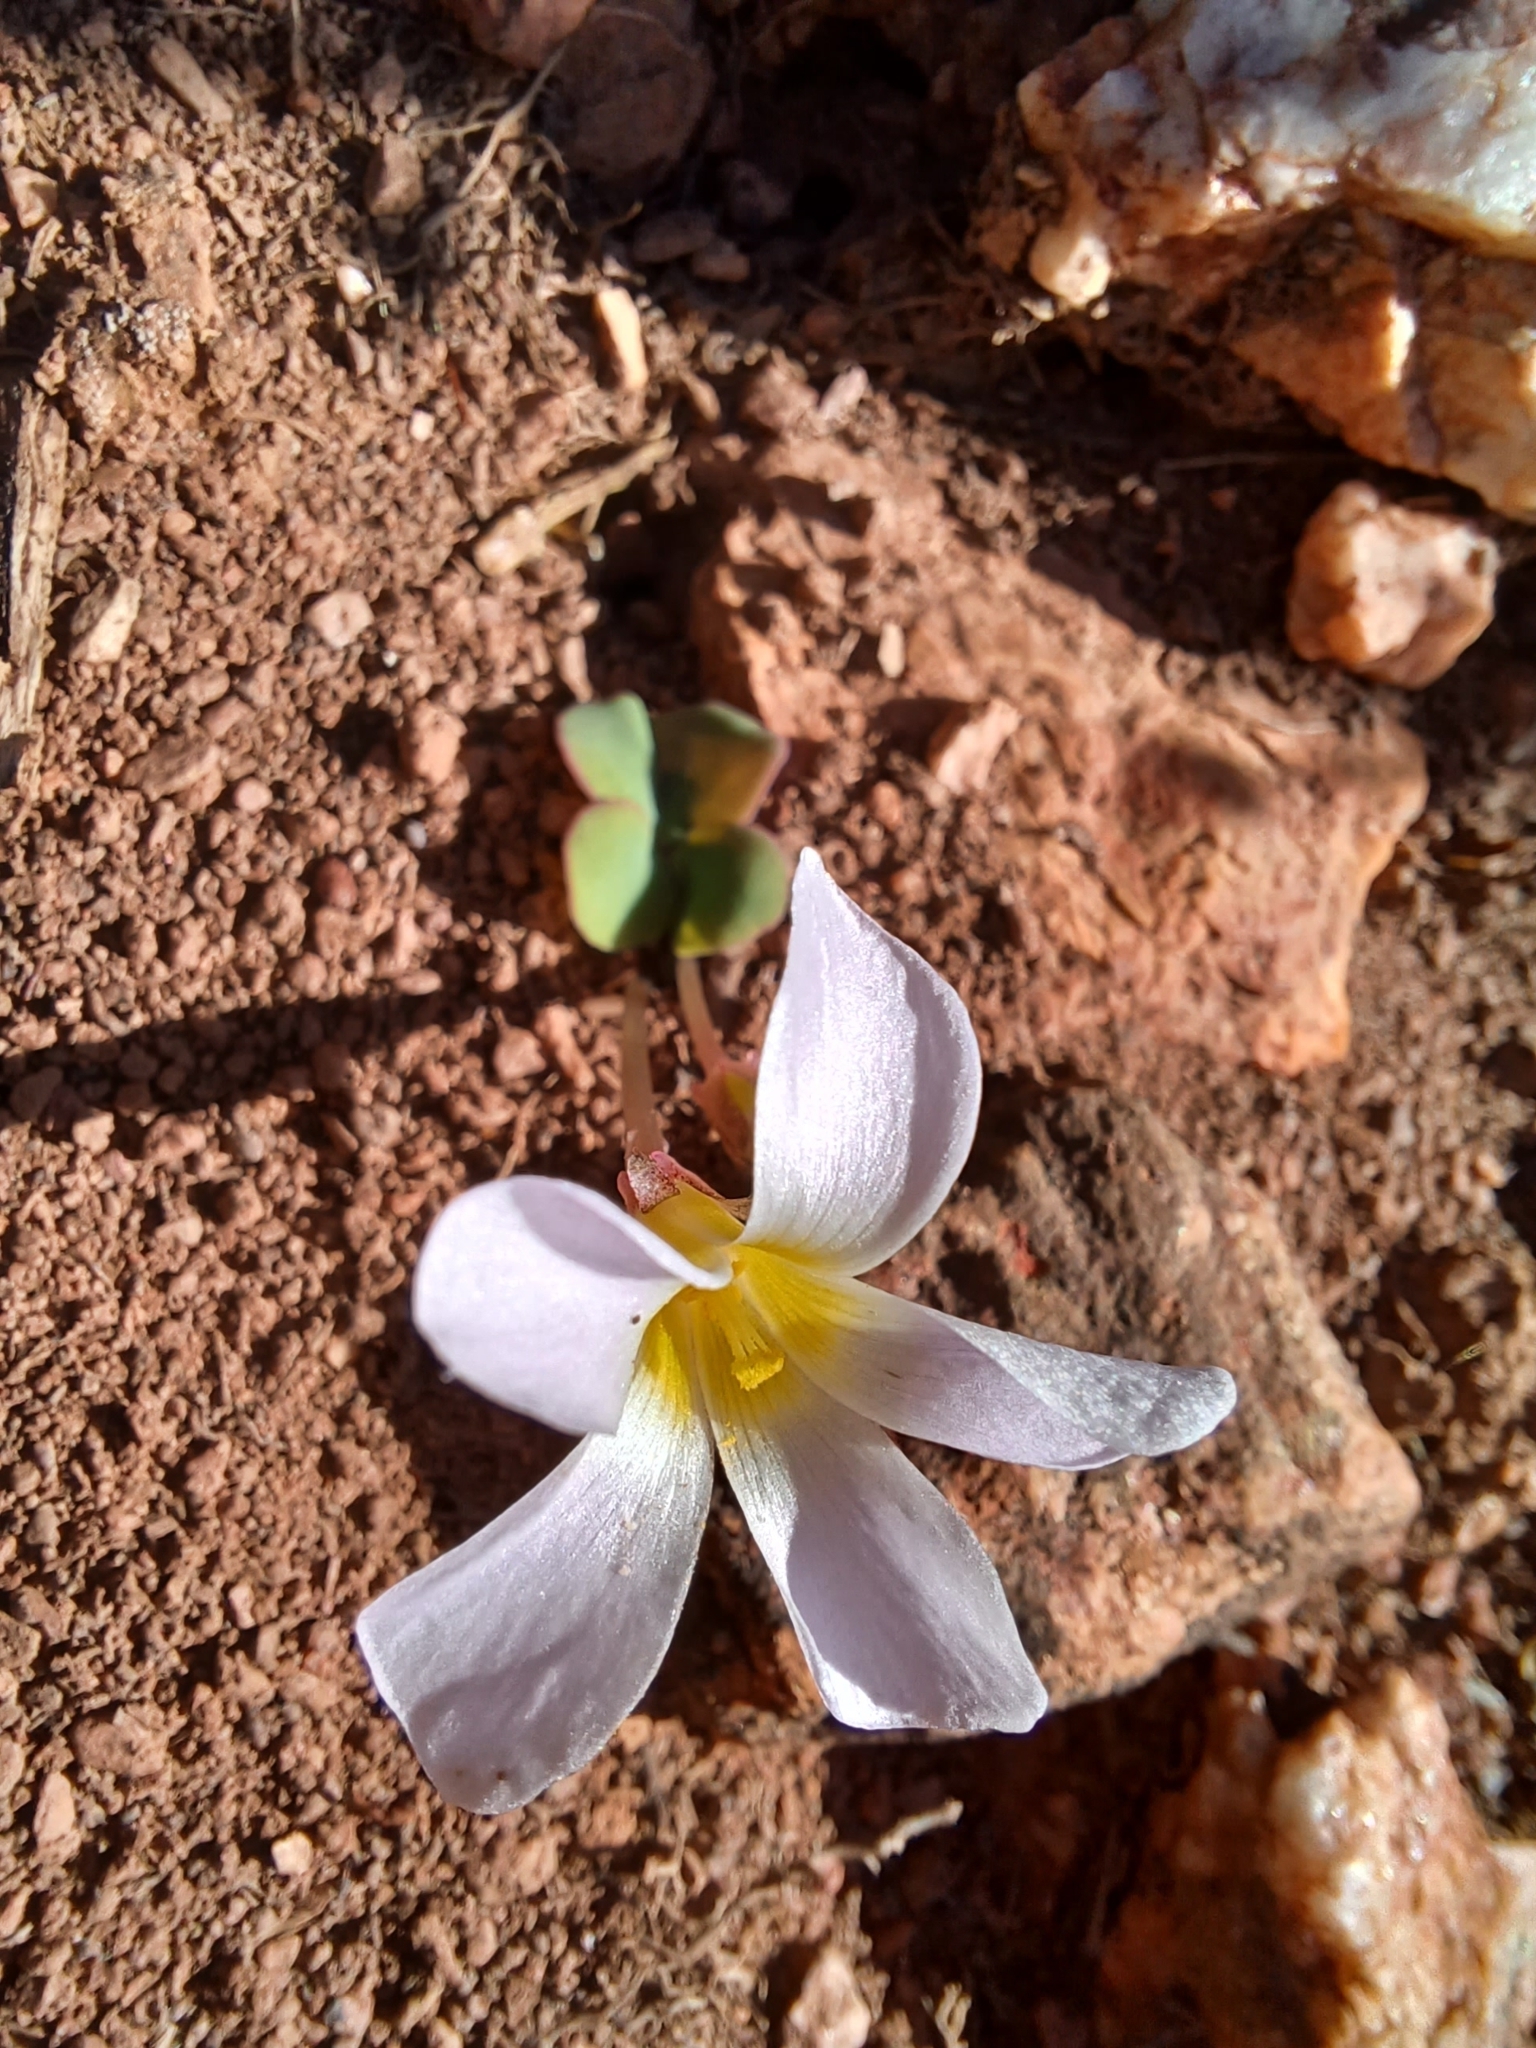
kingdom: Plantae
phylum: Tracheophyta
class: Magnoliopsida
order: Oxalidales
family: Oxalidaceae
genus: Oxalis
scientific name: Oxalis depressa
